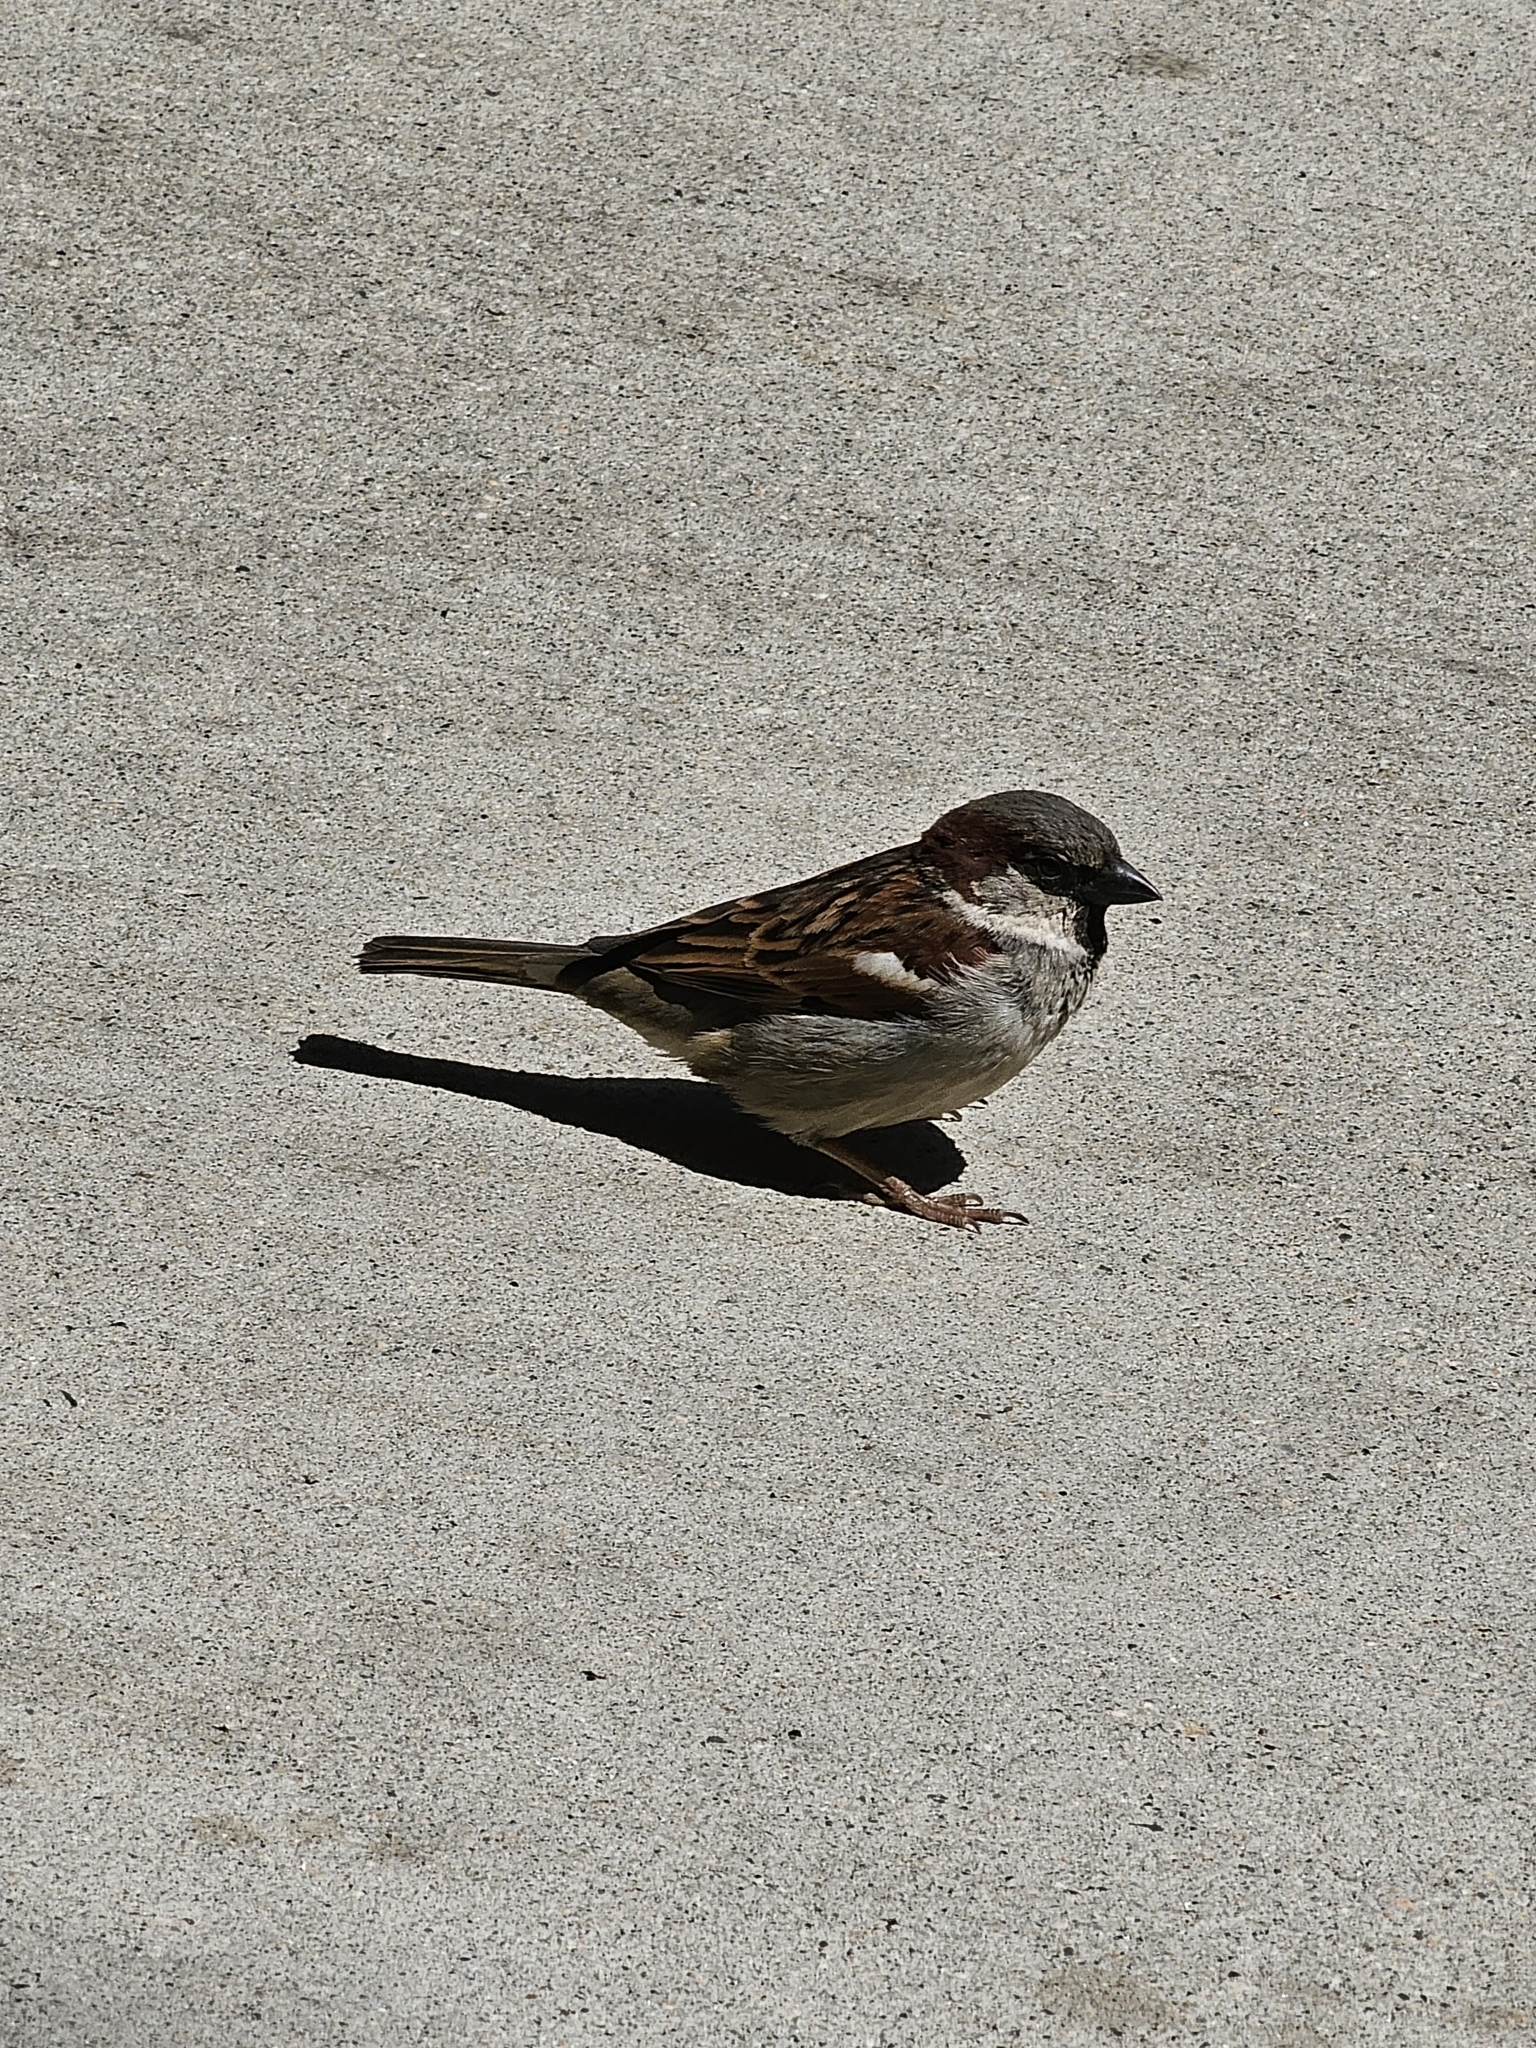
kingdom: Animalia
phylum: Chordata
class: Aves
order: Passeriformes
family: Passeridae
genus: Passer
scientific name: Passer domesticus
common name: House sparrow
